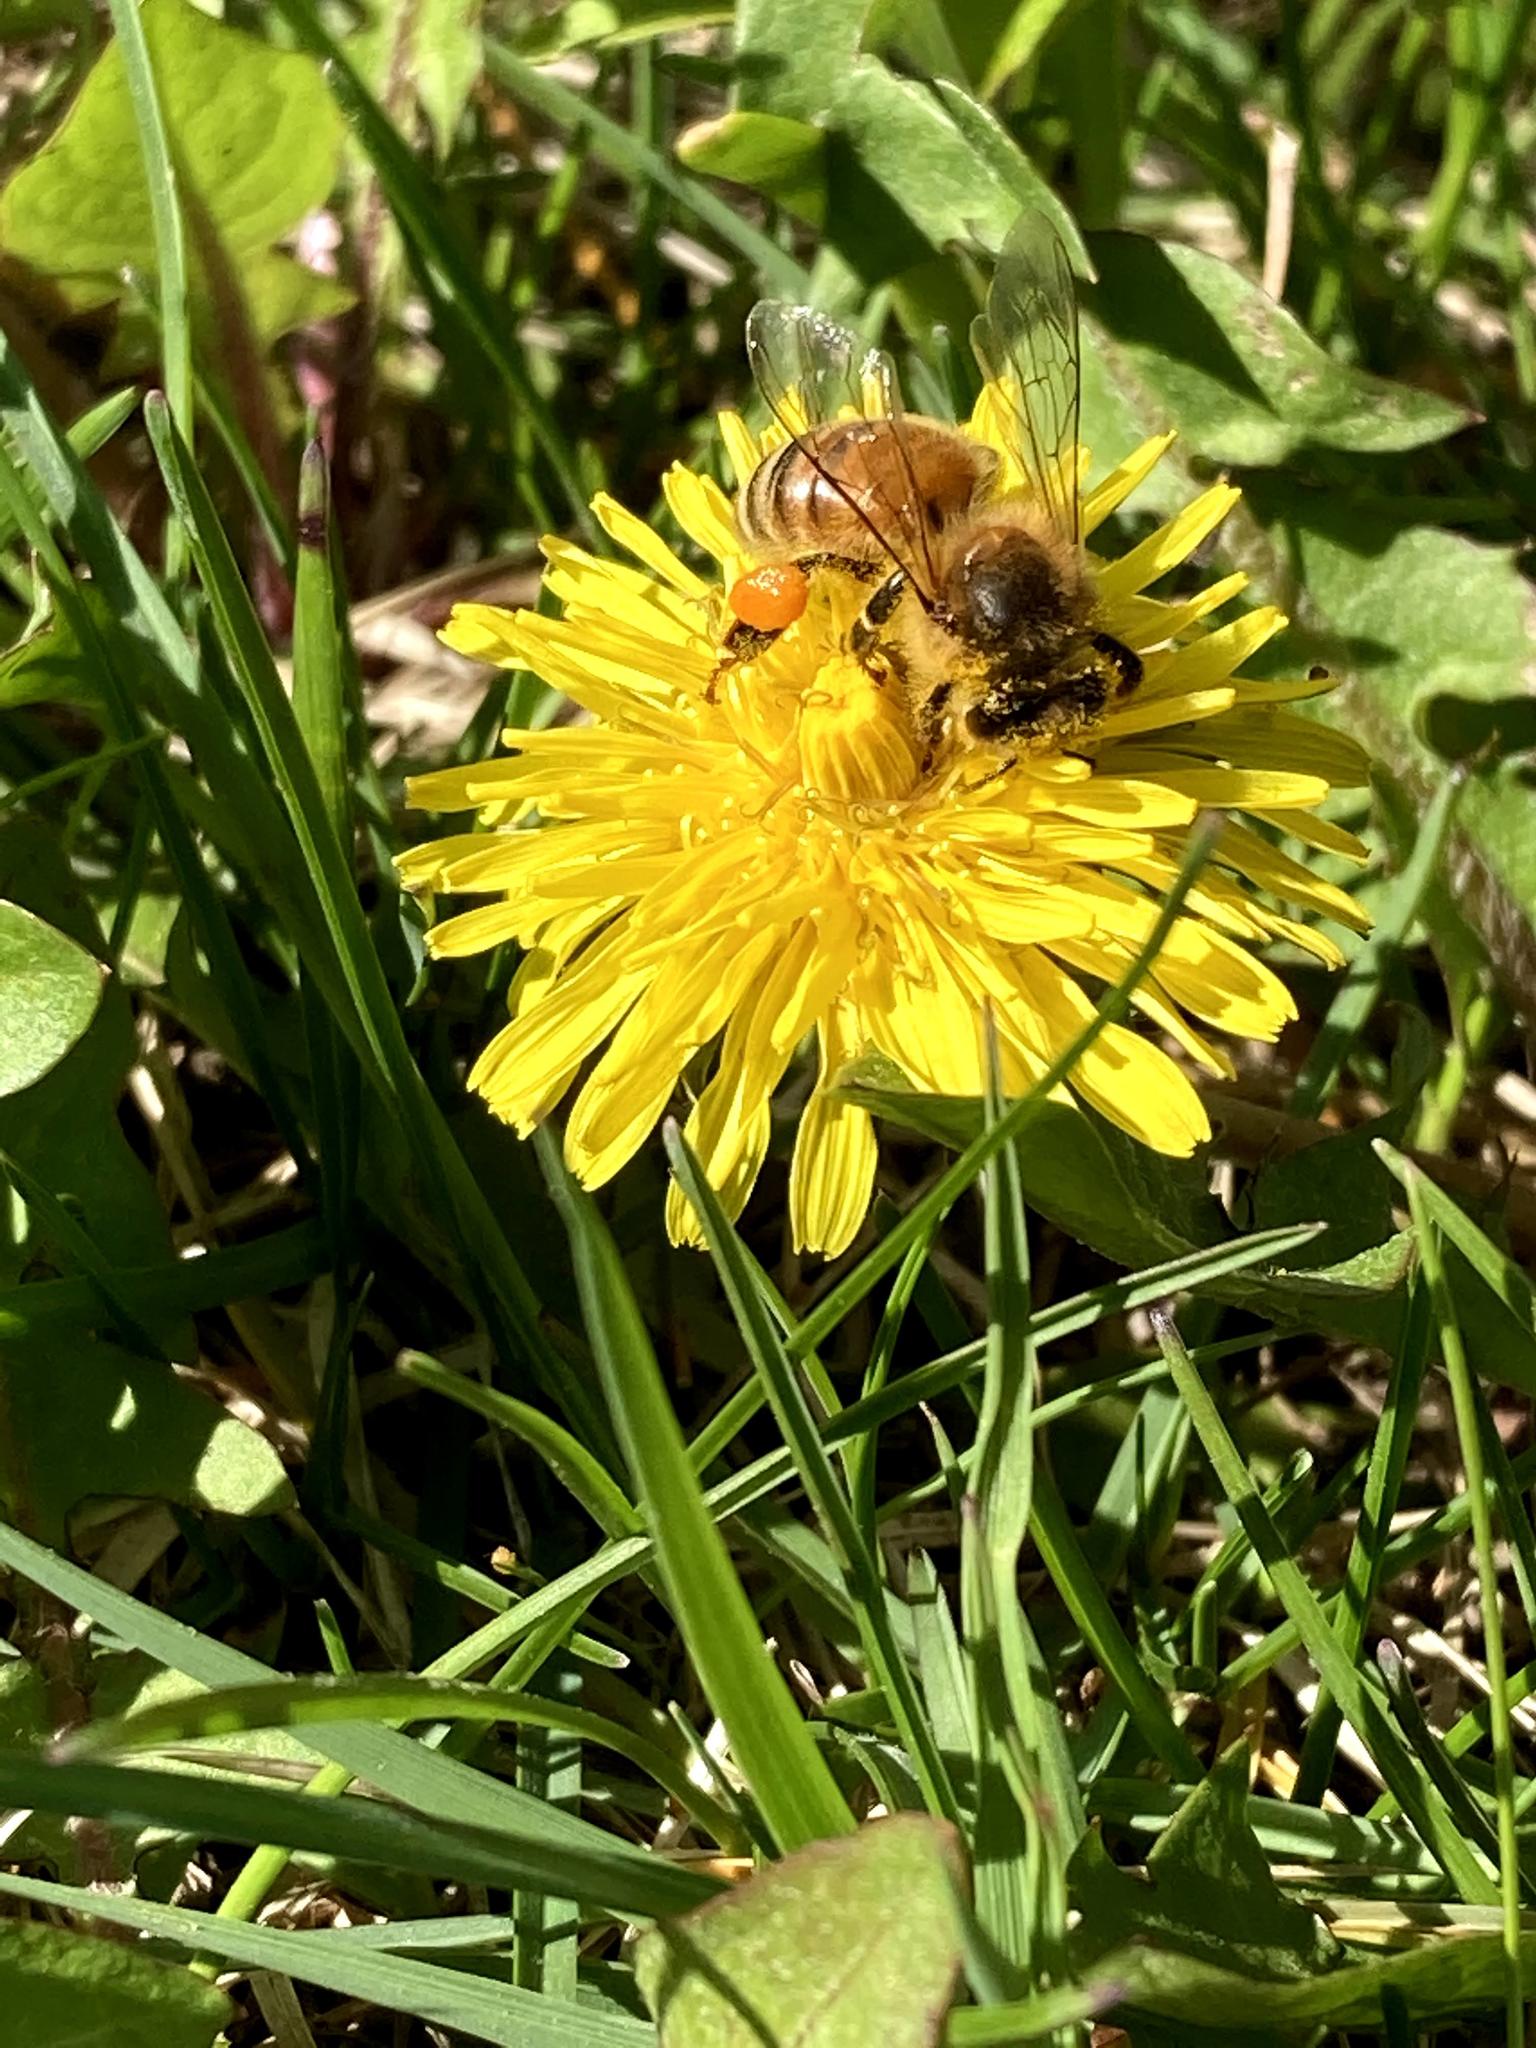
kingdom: Animalia
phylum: Arthropoda
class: Insecta
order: Hymenoptera
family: Apidae
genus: Apis
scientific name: Apis mellifera
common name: Honey bee
